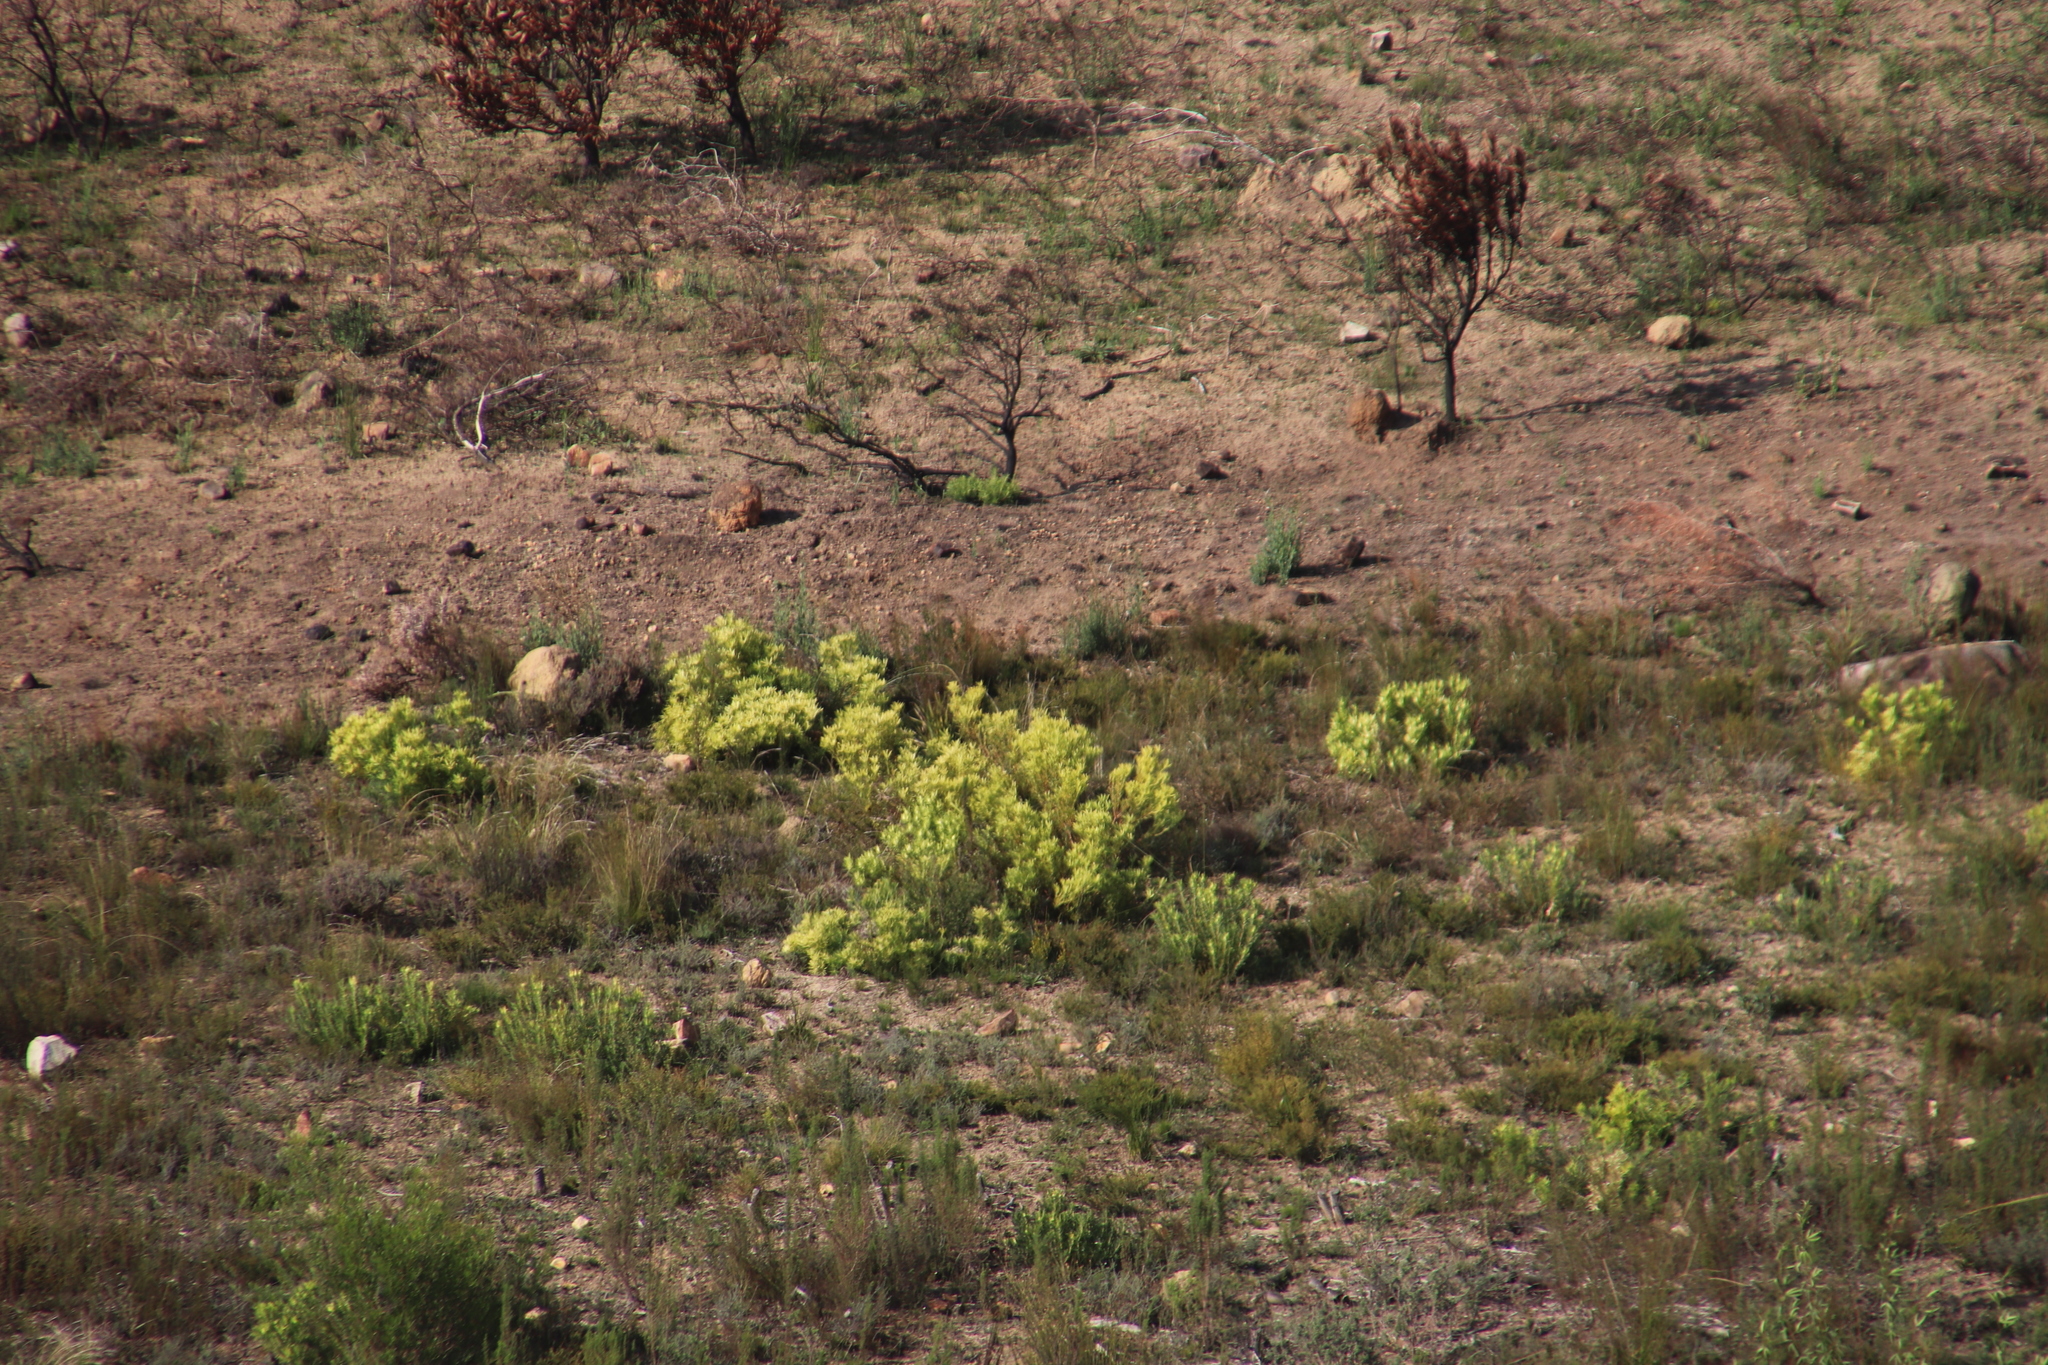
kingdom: Plantae
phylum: Tracheophyta
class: Magnoliopsida
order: Proteales
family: Proteaceae
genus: Leucadendron
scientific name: Leucadendron salignum
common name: Common sunshine conebush
